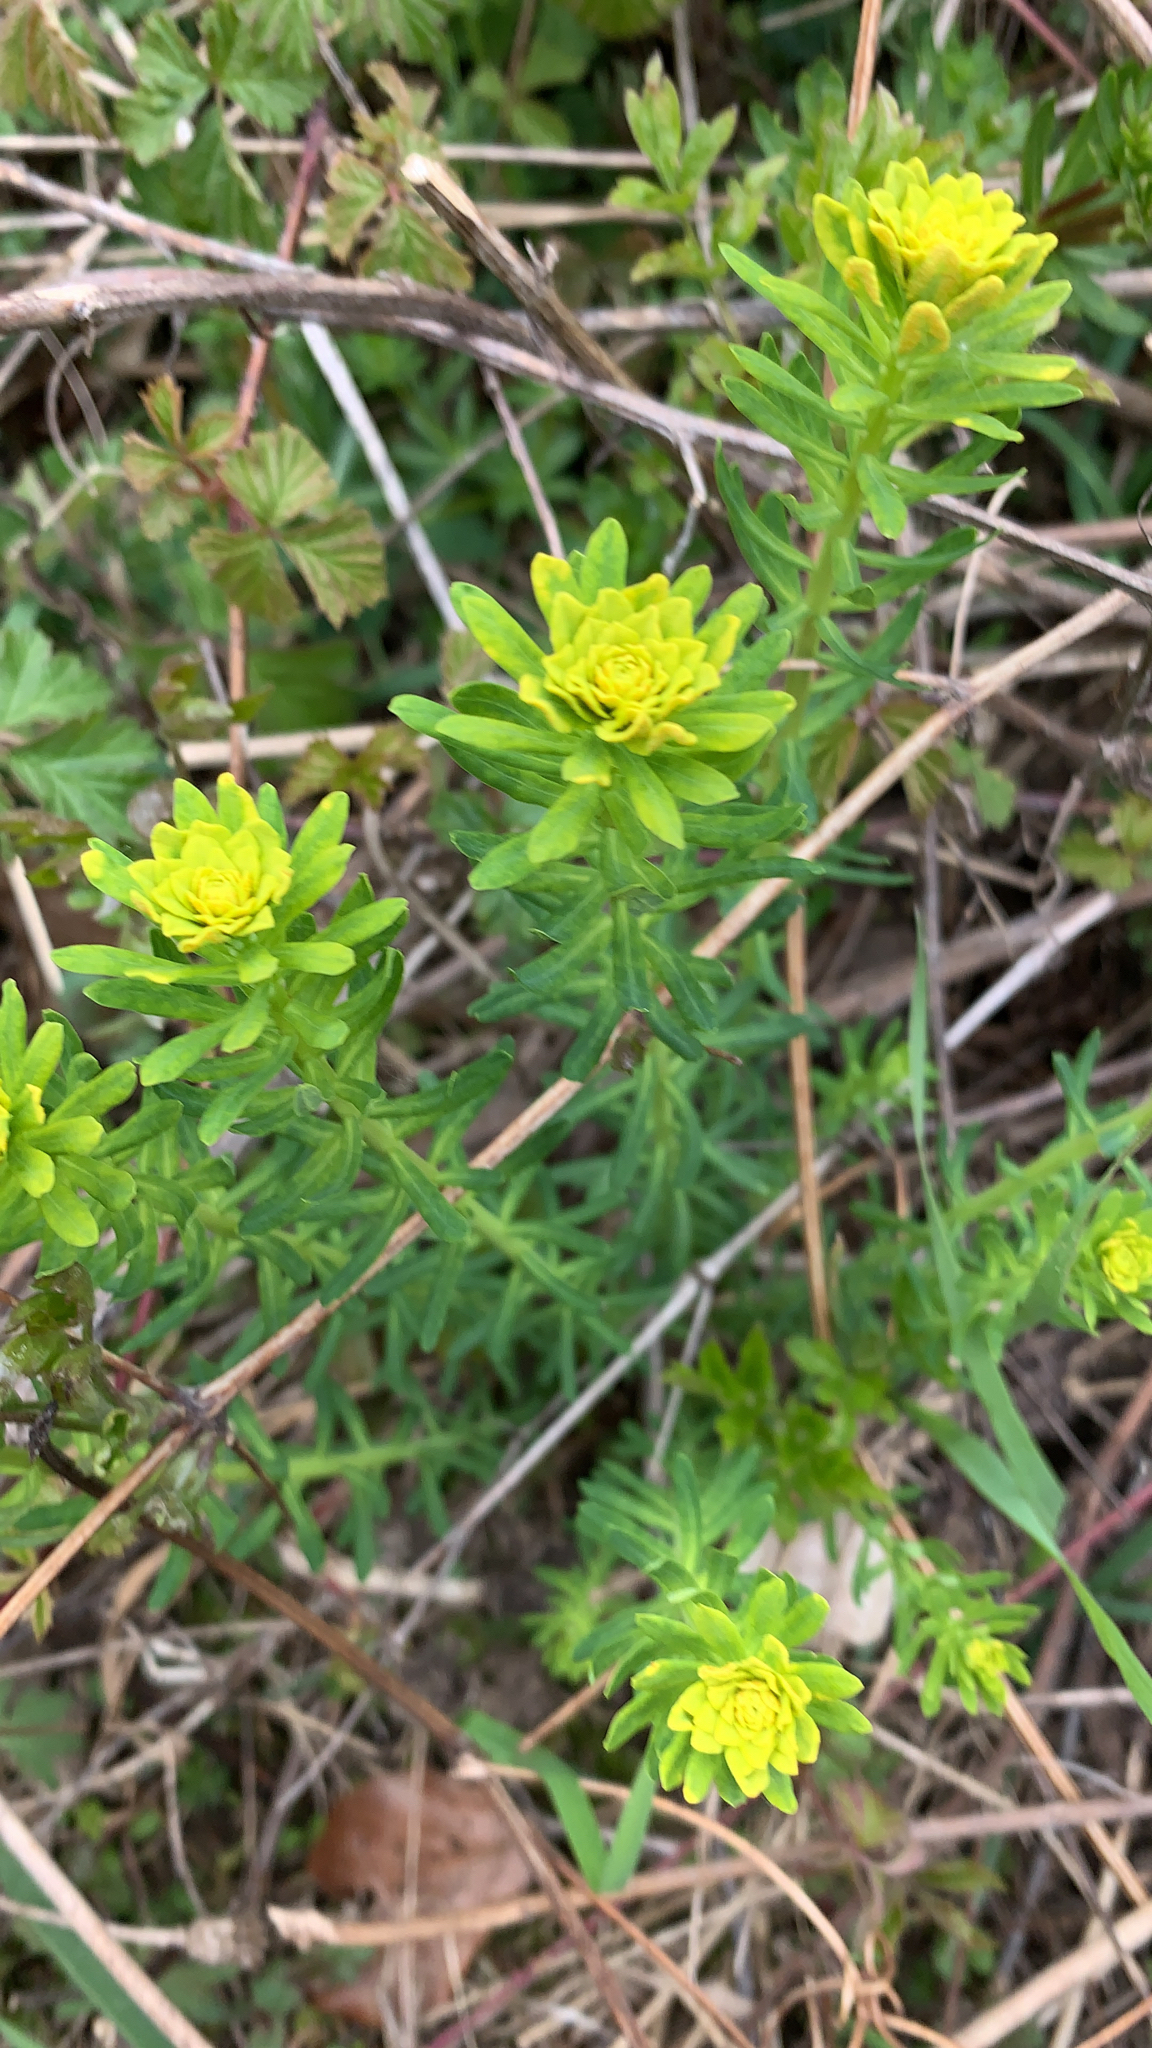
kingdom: Plantae
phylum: Tracheophyta
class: Magnoliopsida
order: Malpighiales
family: Euphorbiaceae
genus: Euphorbia
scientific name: Euphorbia cyparissias
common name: Cypress spurge
